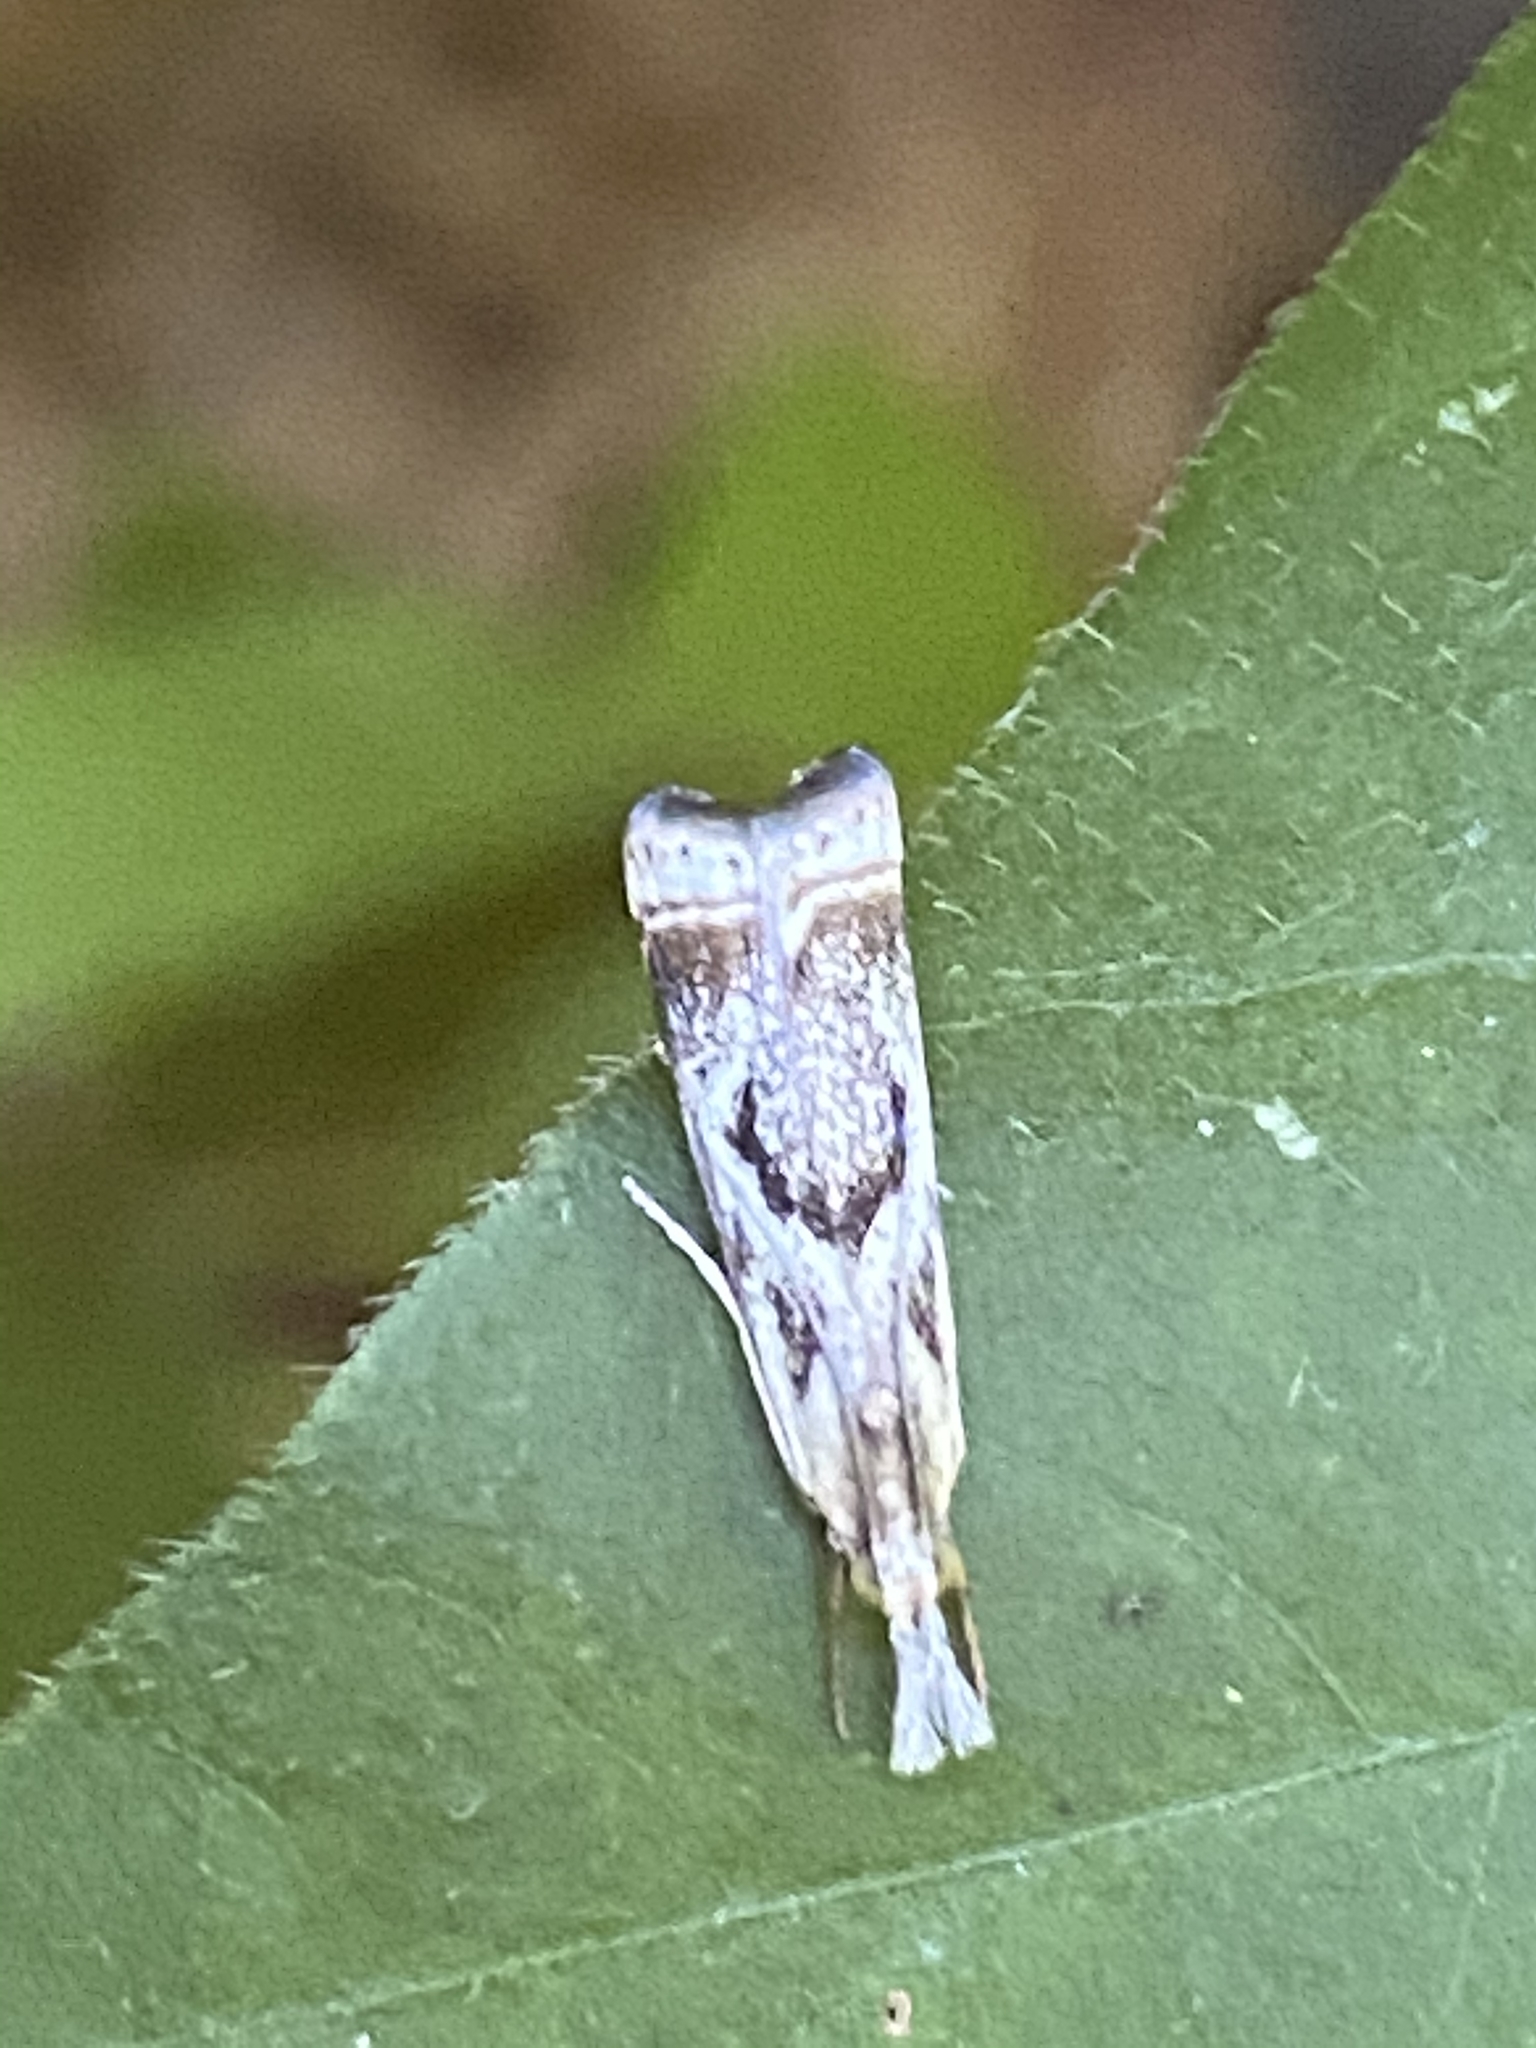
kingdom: Animalia
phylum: Arthropoda
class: Insecta
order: Lepidoptera
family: Crambidae
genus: Microcrambus
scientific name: Microcrambus elegans
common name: Elegant grass-veneer
